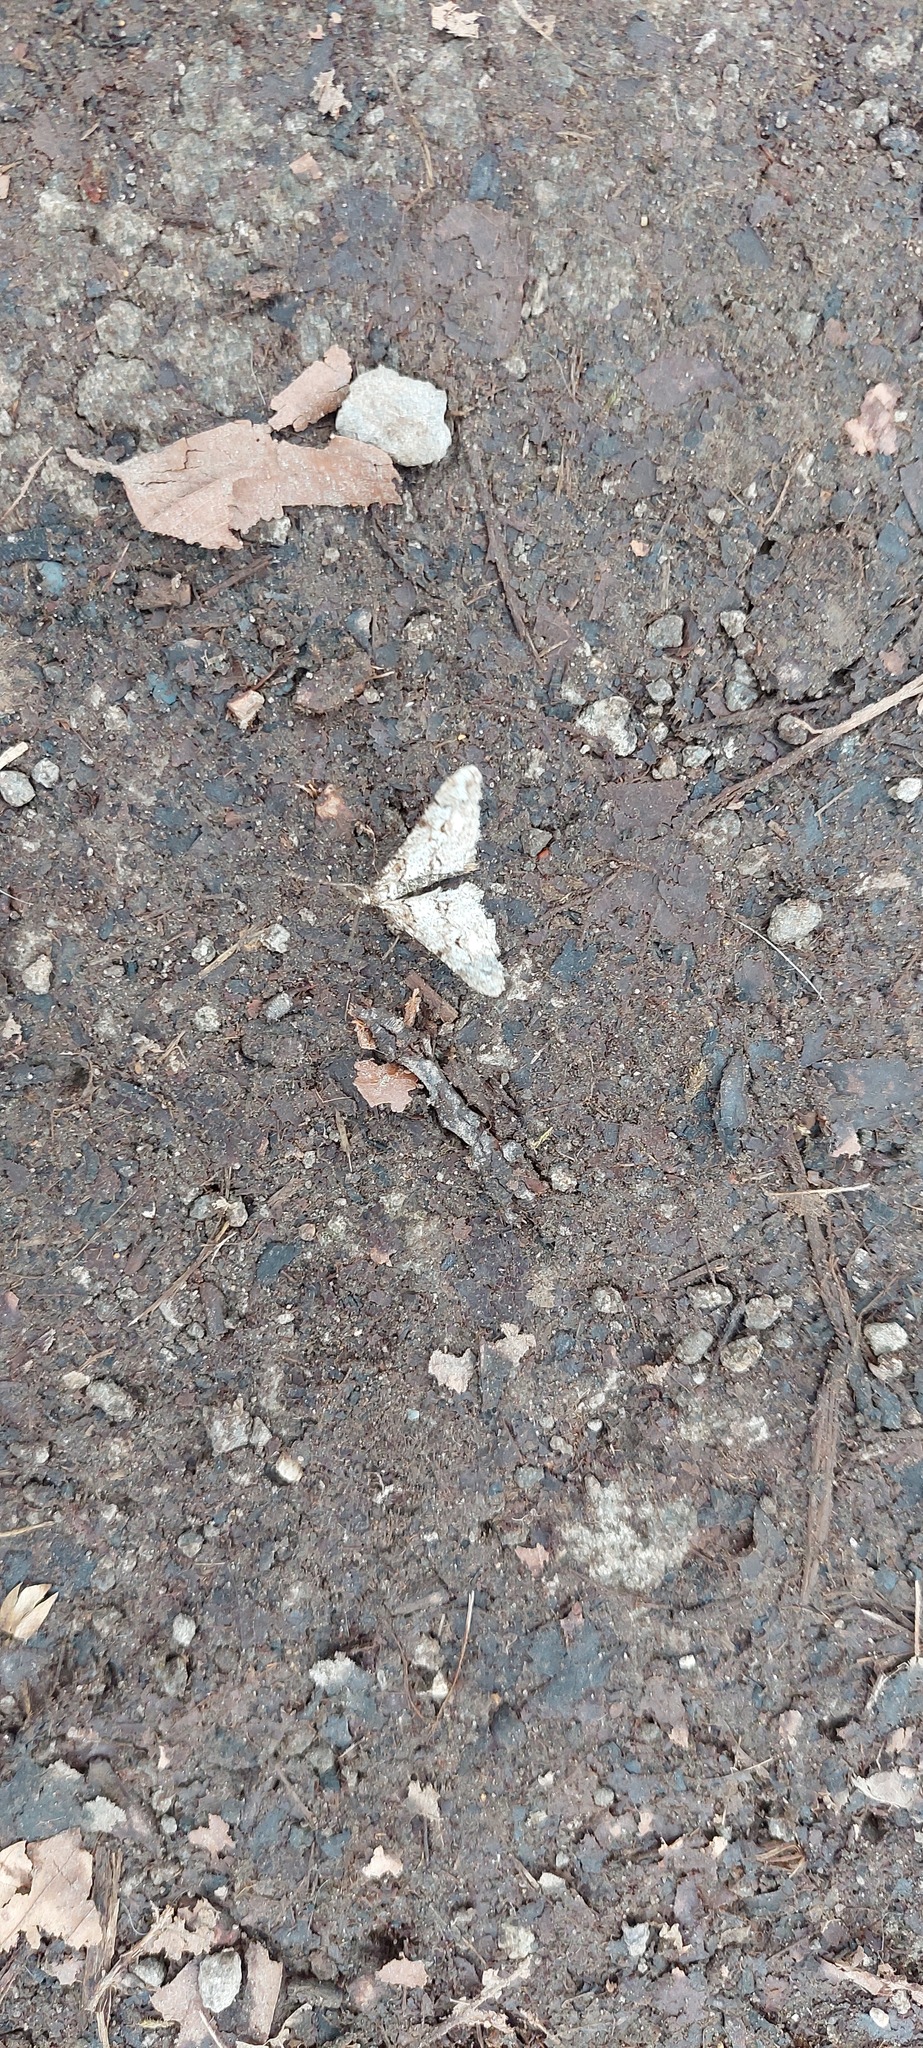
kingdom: Animalia
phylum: Arthropoda
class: Insecta
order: Lepidoptera
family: Geometridae
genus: Agriopis
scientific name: Agriopis leucophaearia
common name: Spring usher
